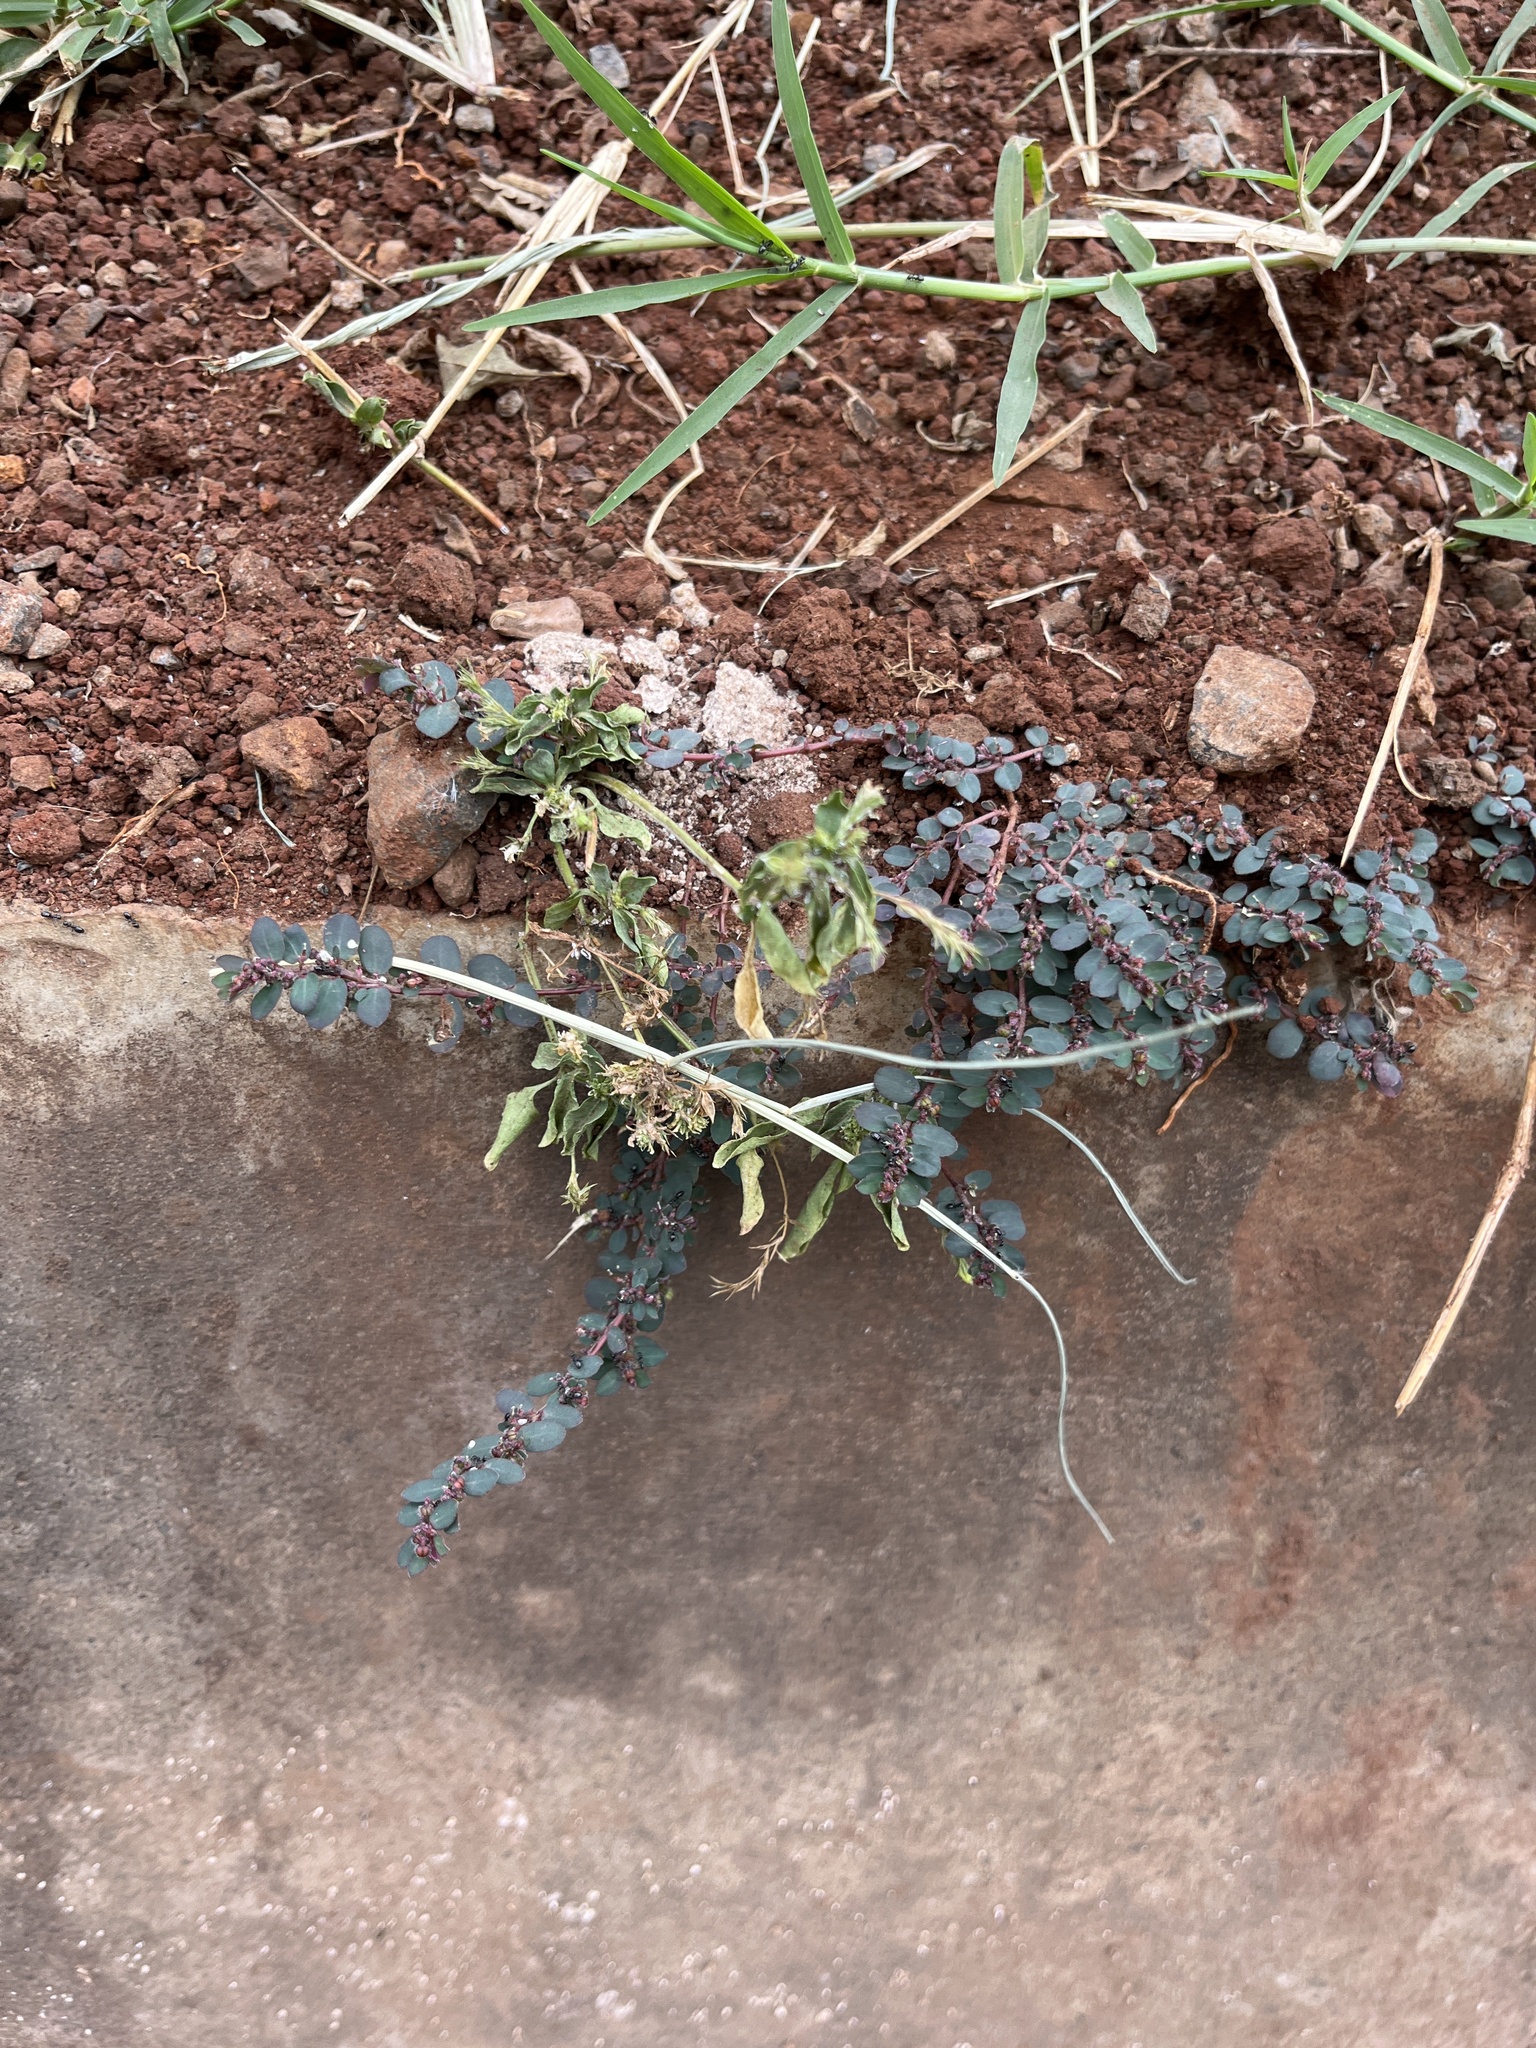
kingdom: Plantae
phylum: Tracheophyta
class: Magnoliopsida
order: Malpighiales
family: Euphorbiaceae
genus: Euphorbia
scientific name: Euphorbia prostrata
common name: Prostrate sandmat
